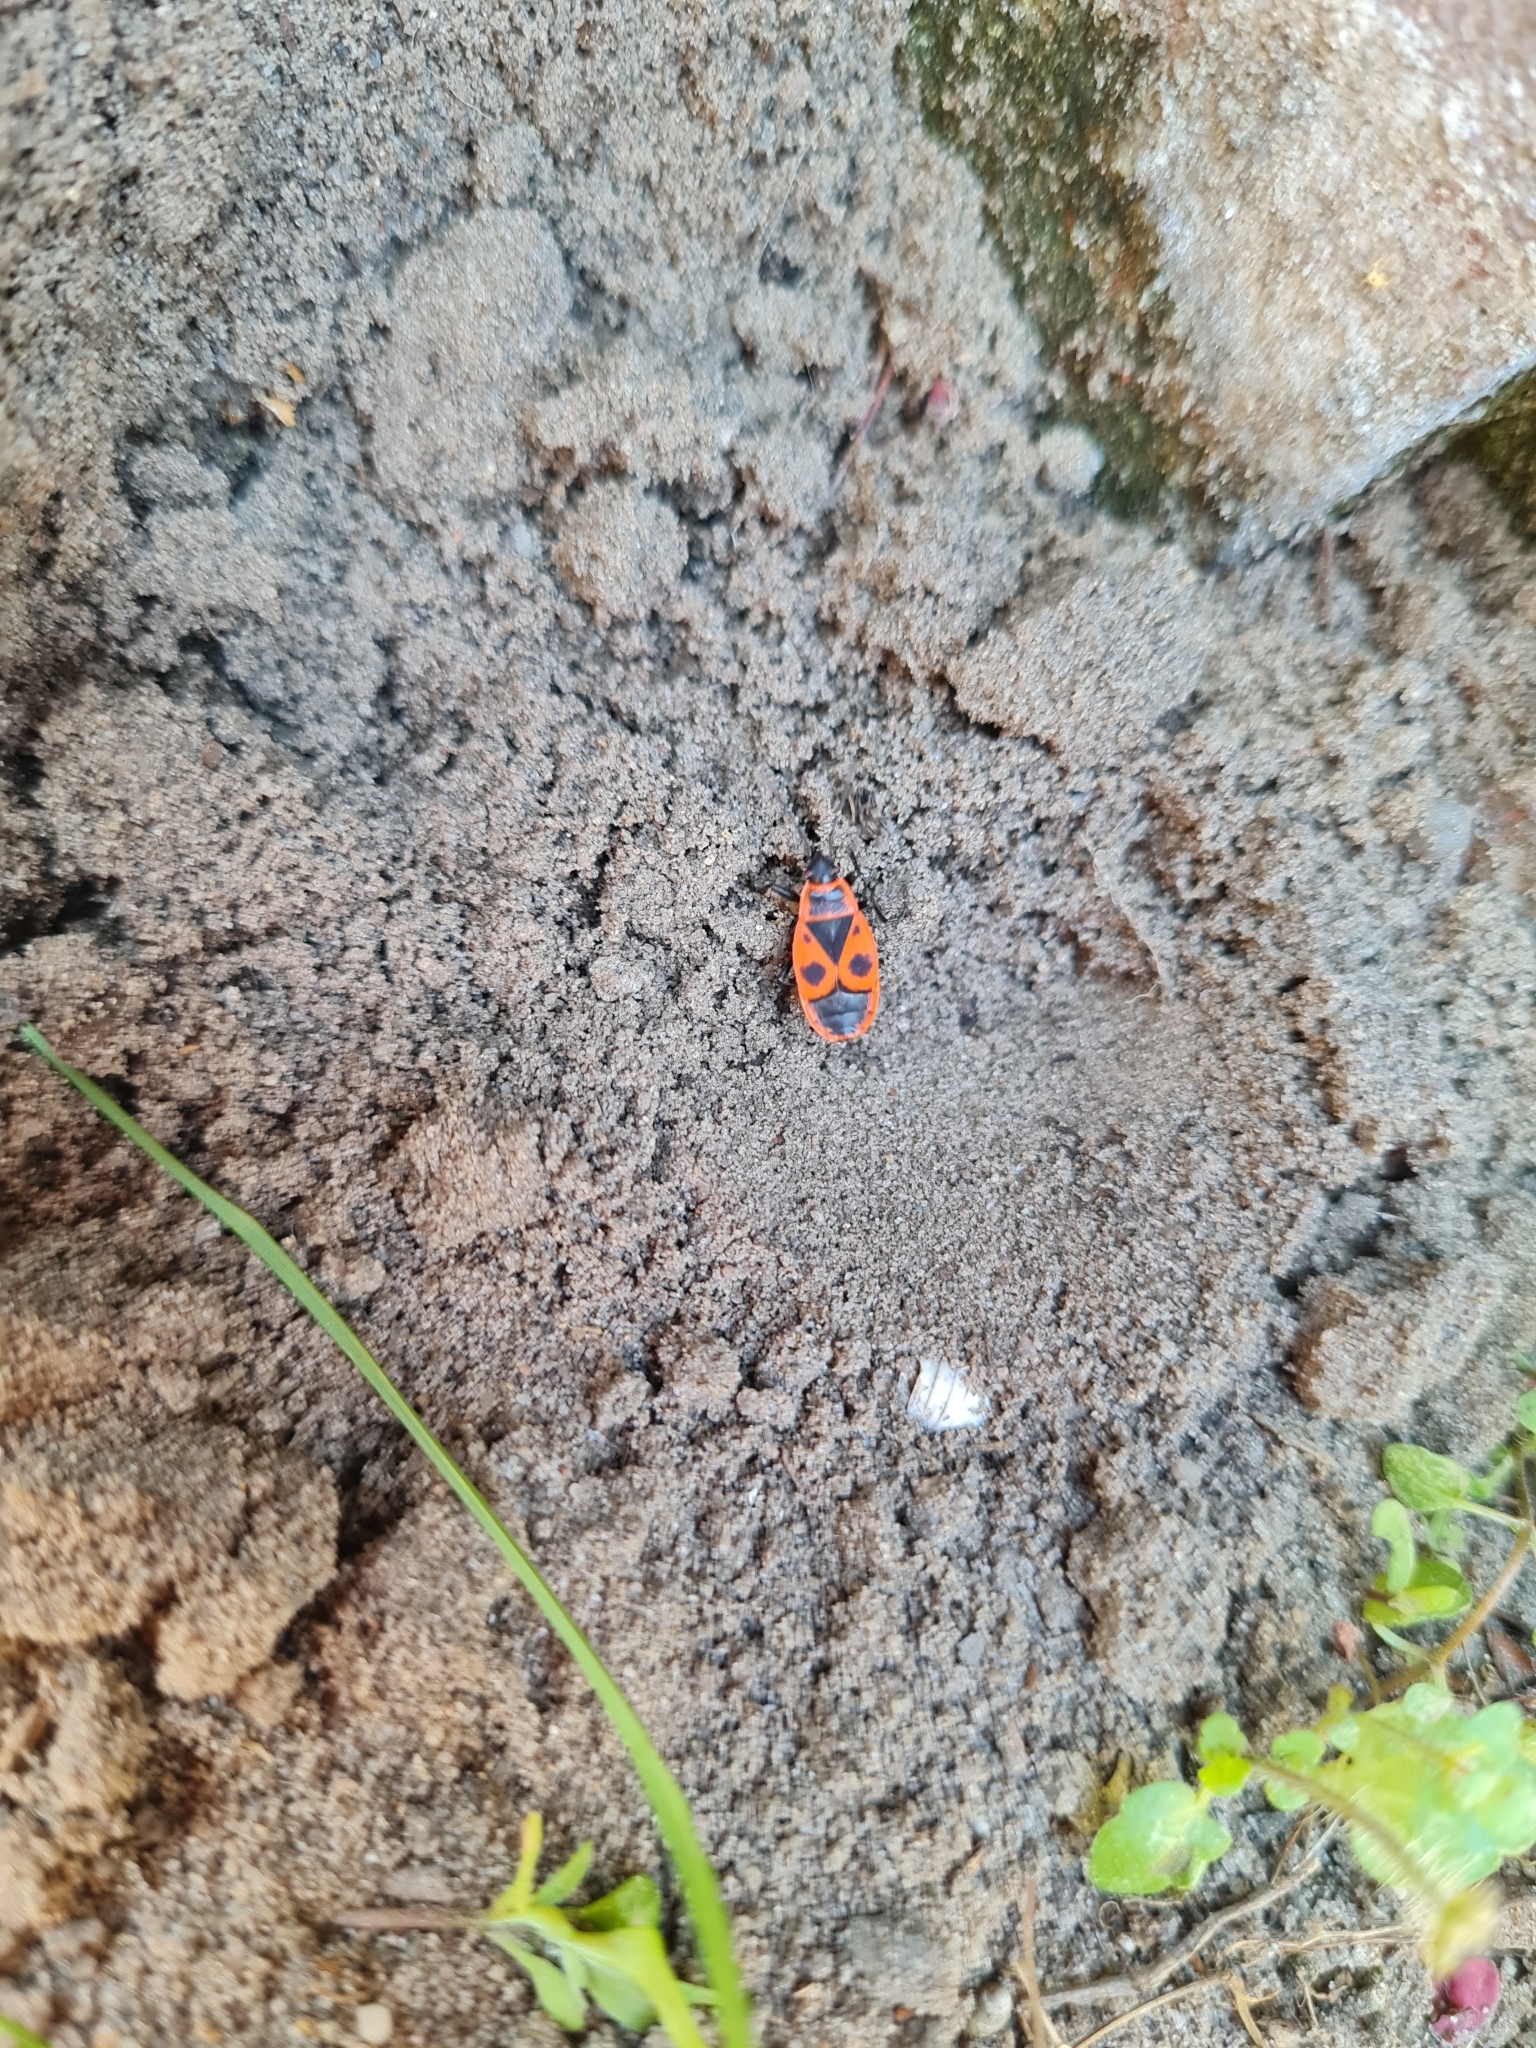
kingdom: Animalia
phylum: Arthropoda
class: Insecta
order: Hemiptera
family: Pyrrhocoridae
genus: Pyrrhocoris
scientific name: Pyrrhocoris apterus
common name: Firebug
